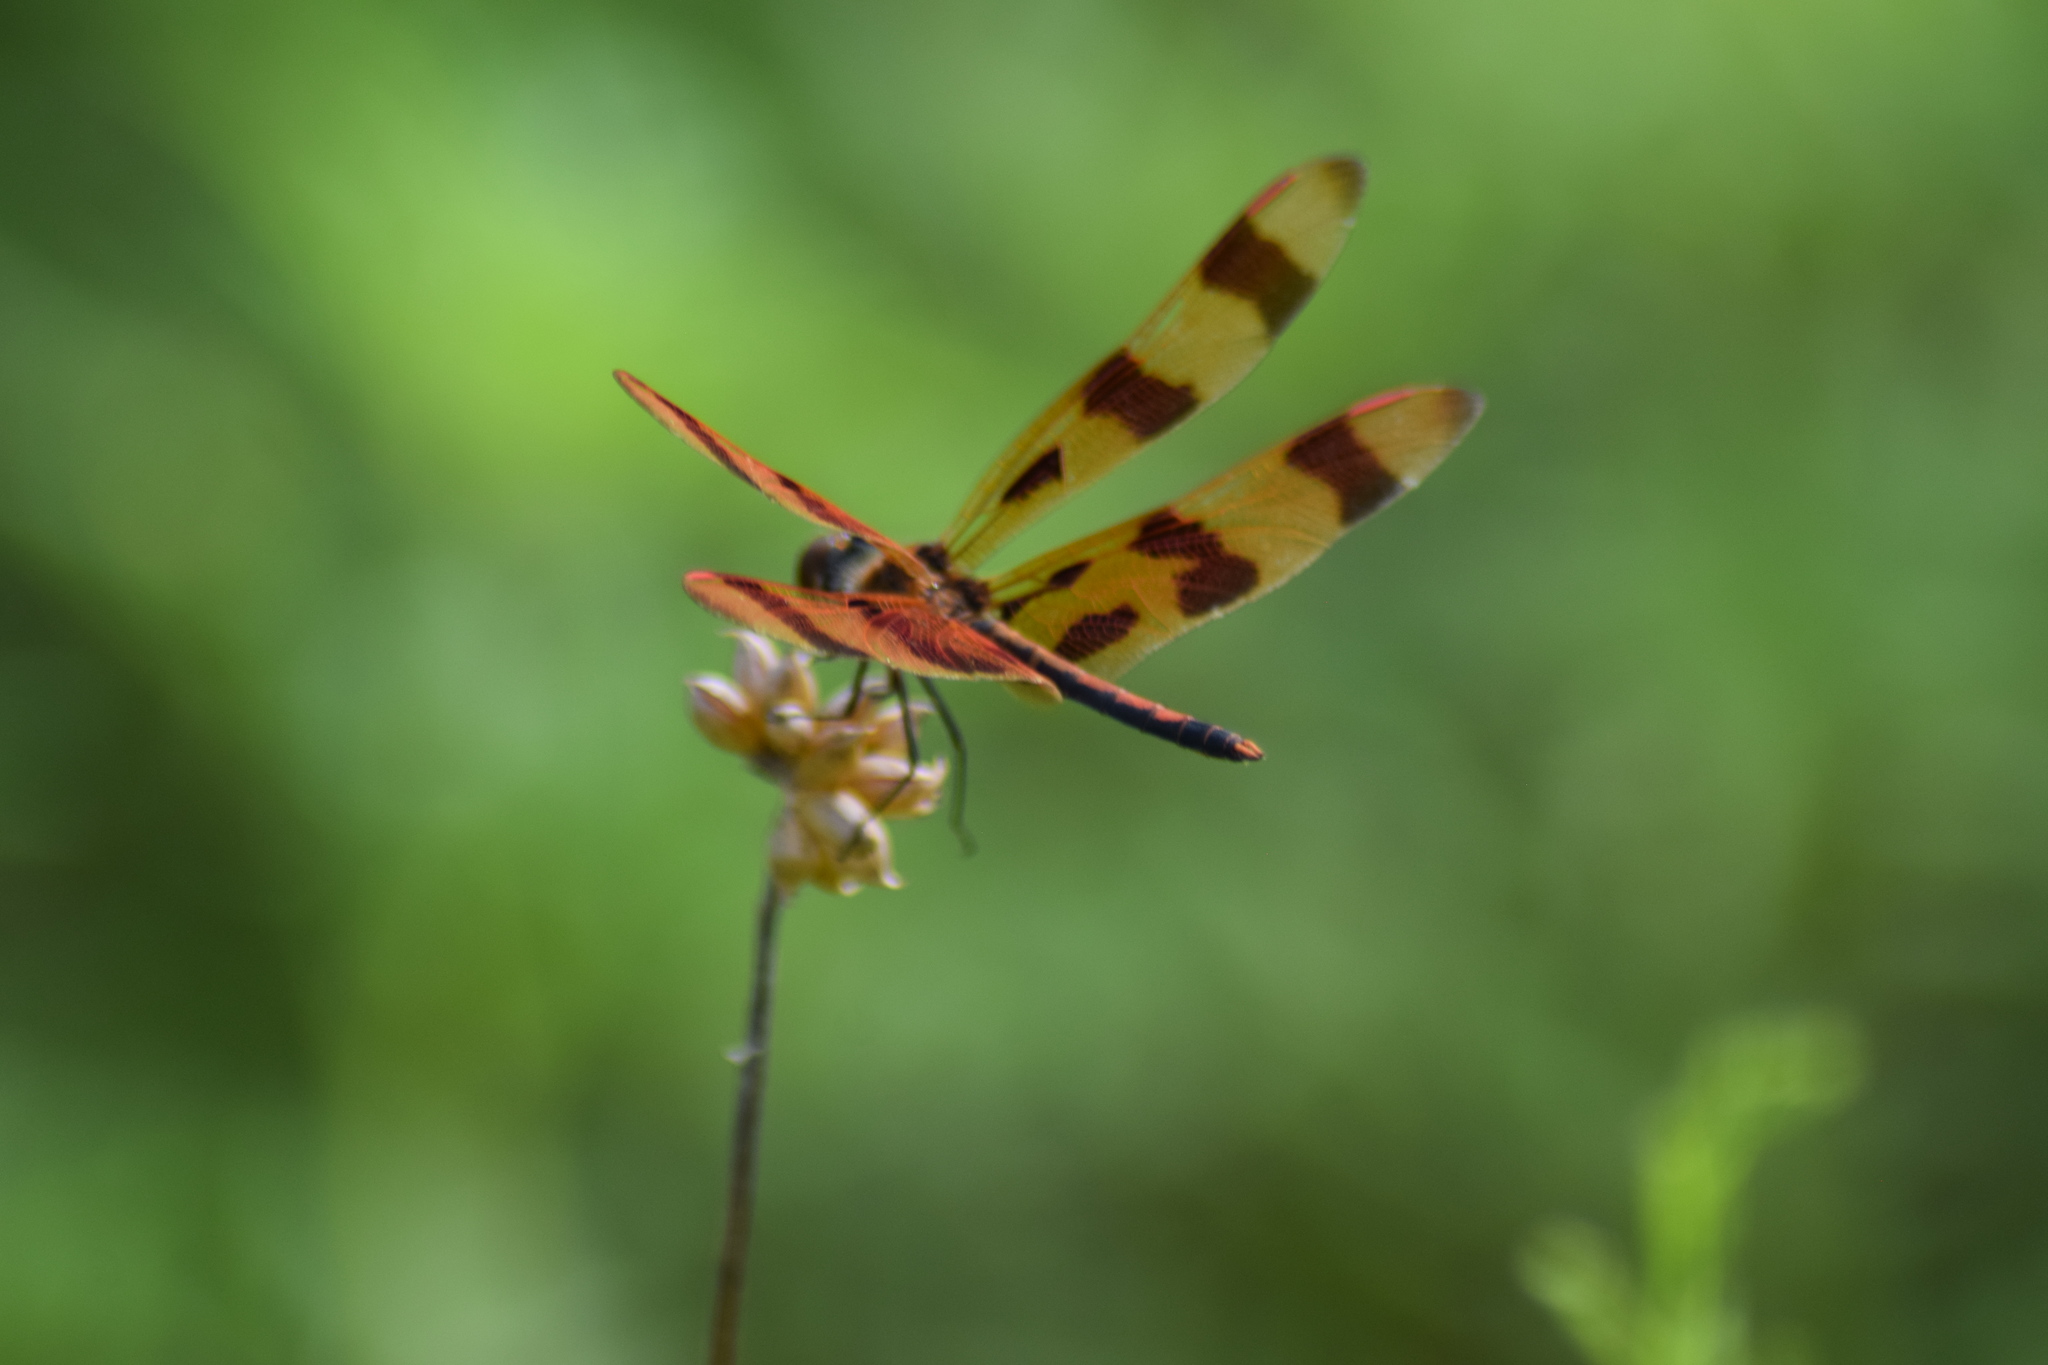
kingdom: Animalia
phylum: Arthropoda
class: Insecta
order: Odonata
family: Libellulidae
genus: Celithemis
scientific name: Celithemis eponina
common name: Halloween pennant
